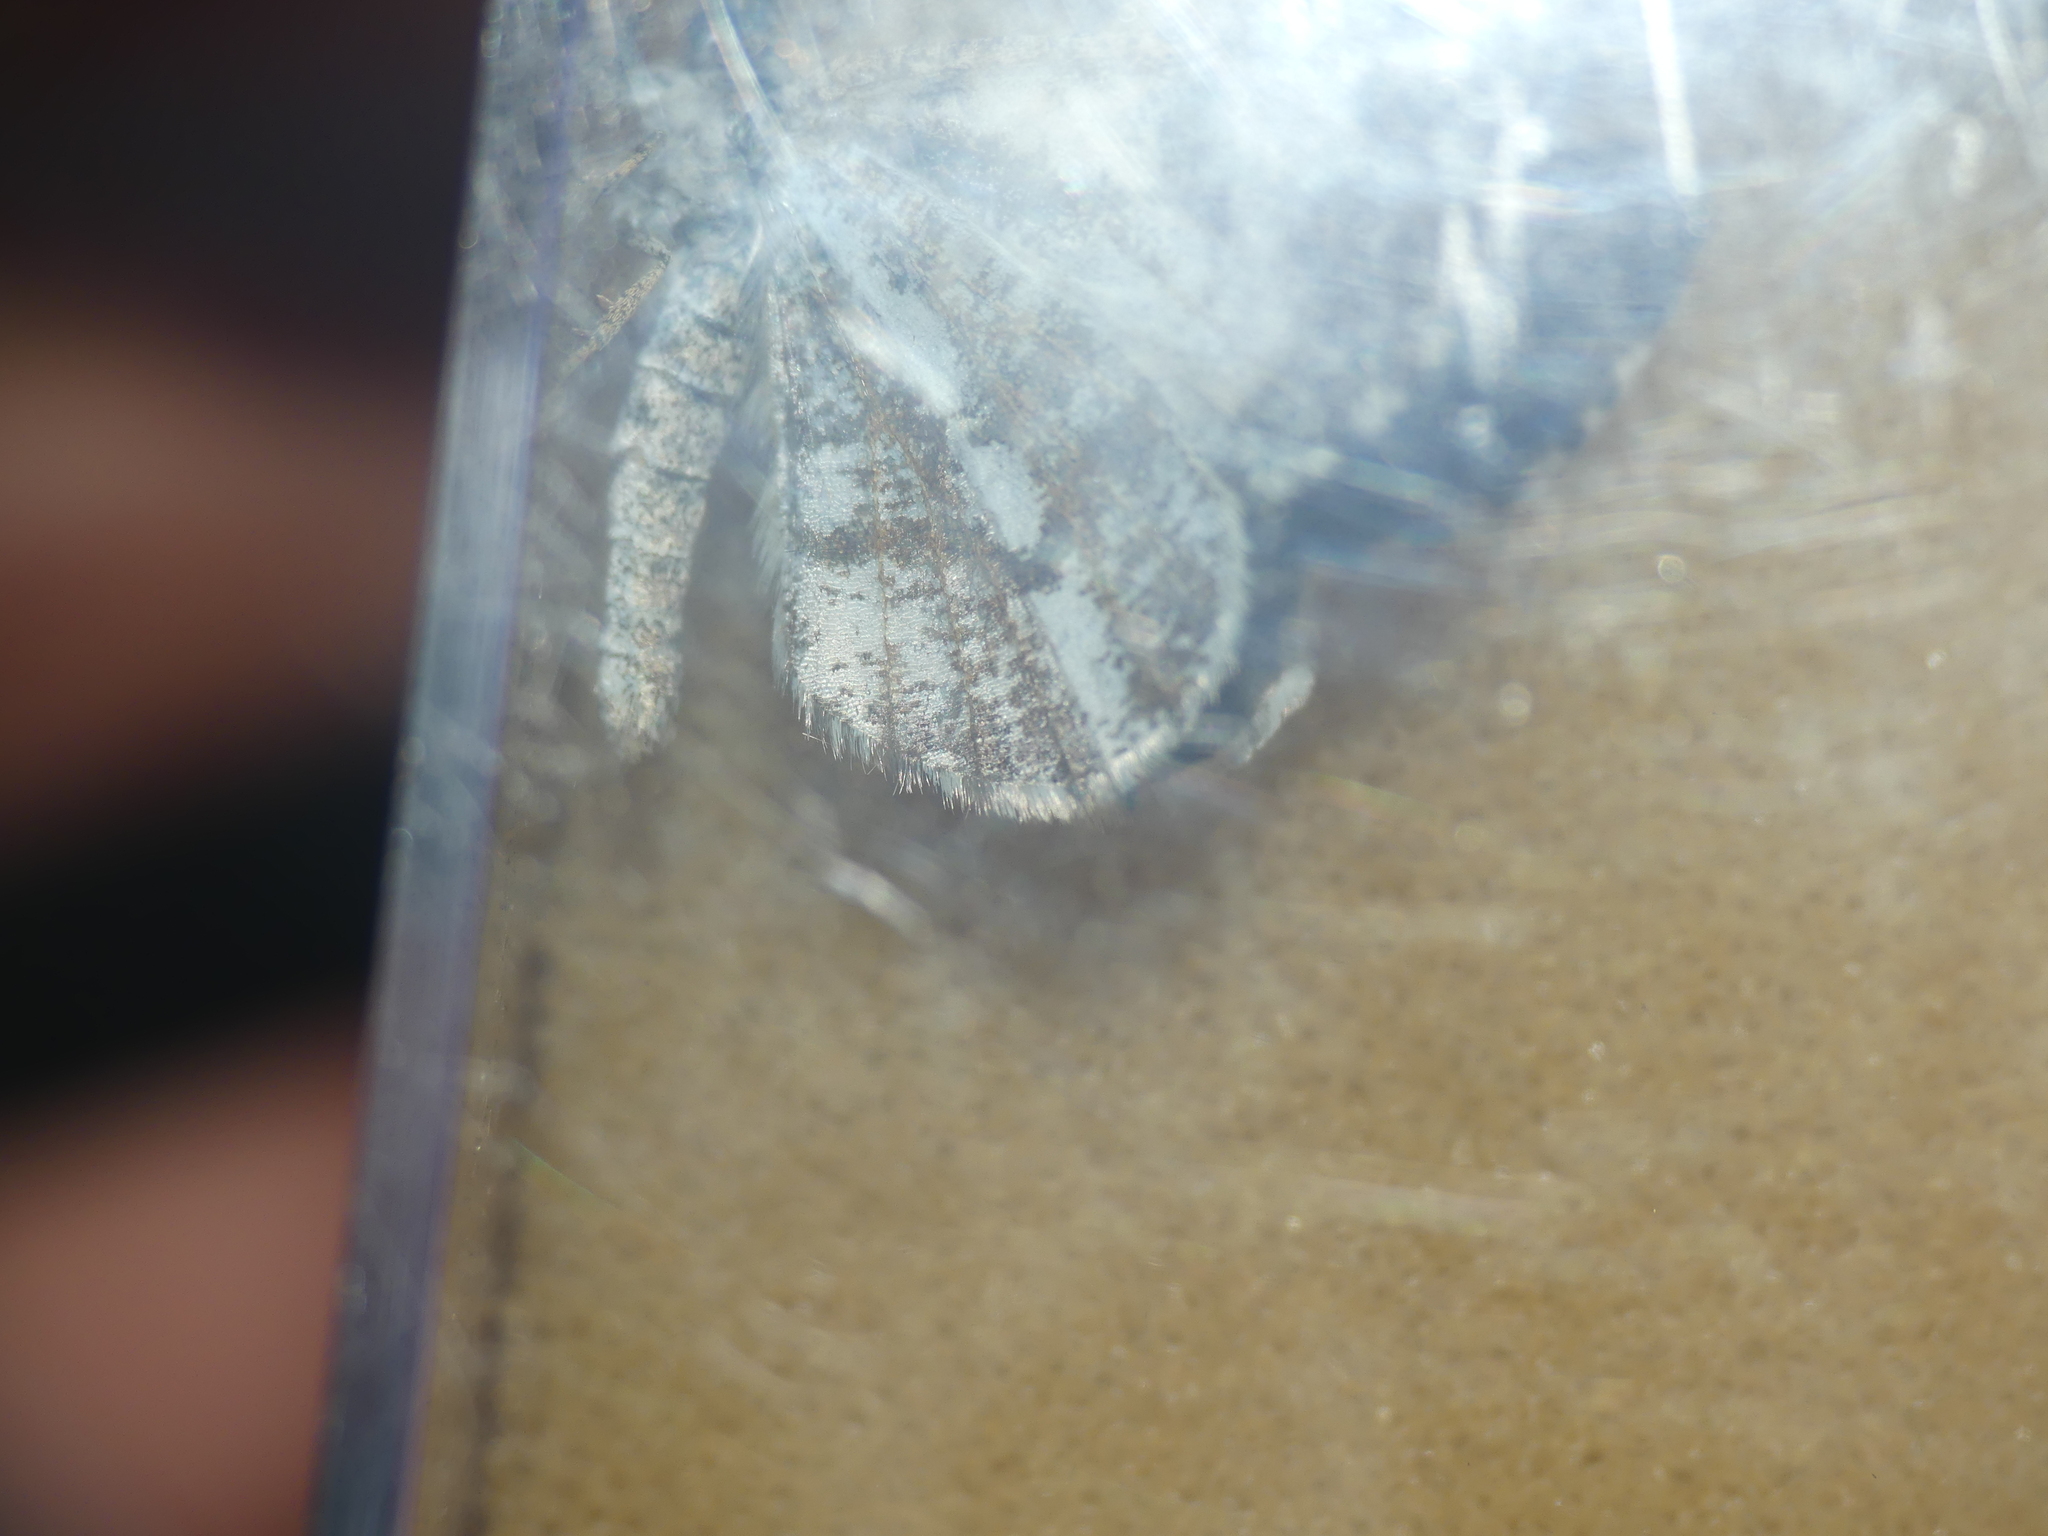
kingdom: Animalia
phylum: Arthropoda
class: Insecta
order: Lepidoptera
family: Geometridae
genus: Bupalus
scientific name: Bupalus piniaria
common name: Bordered white
